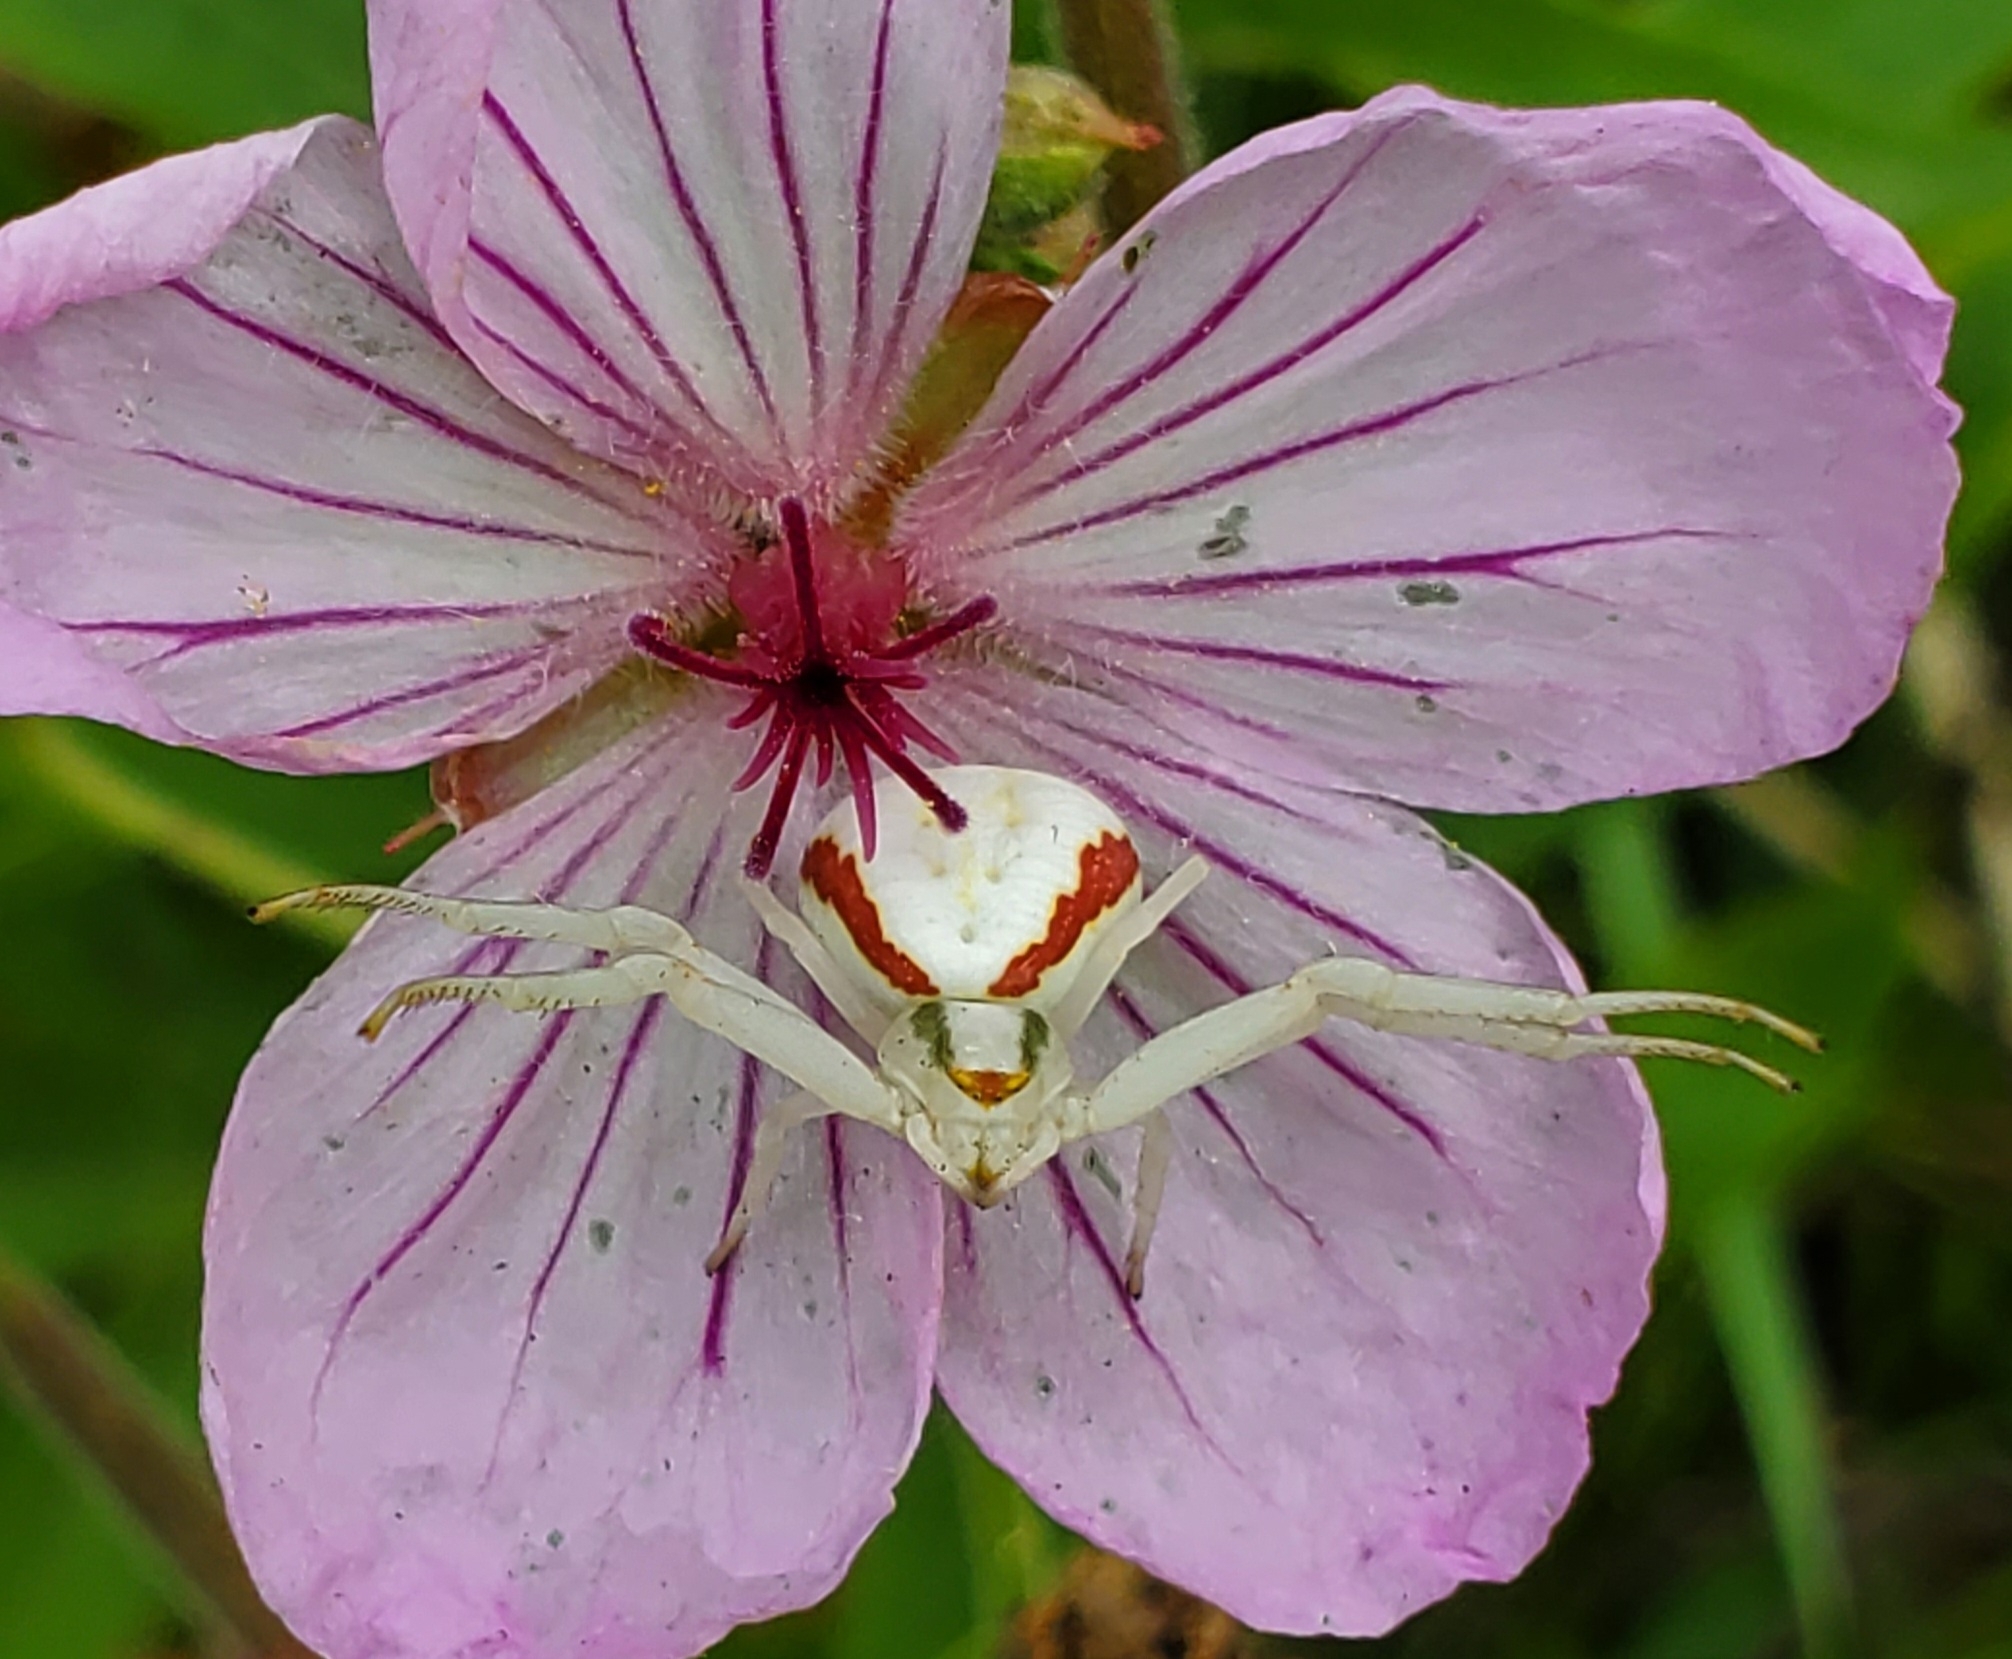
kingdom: Animalia
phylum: Arthropoda
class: Arachnida
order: Araneae
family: Thomisidae
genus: Misumena
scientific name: Misumena vatia
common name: Goldenrod crab spider
